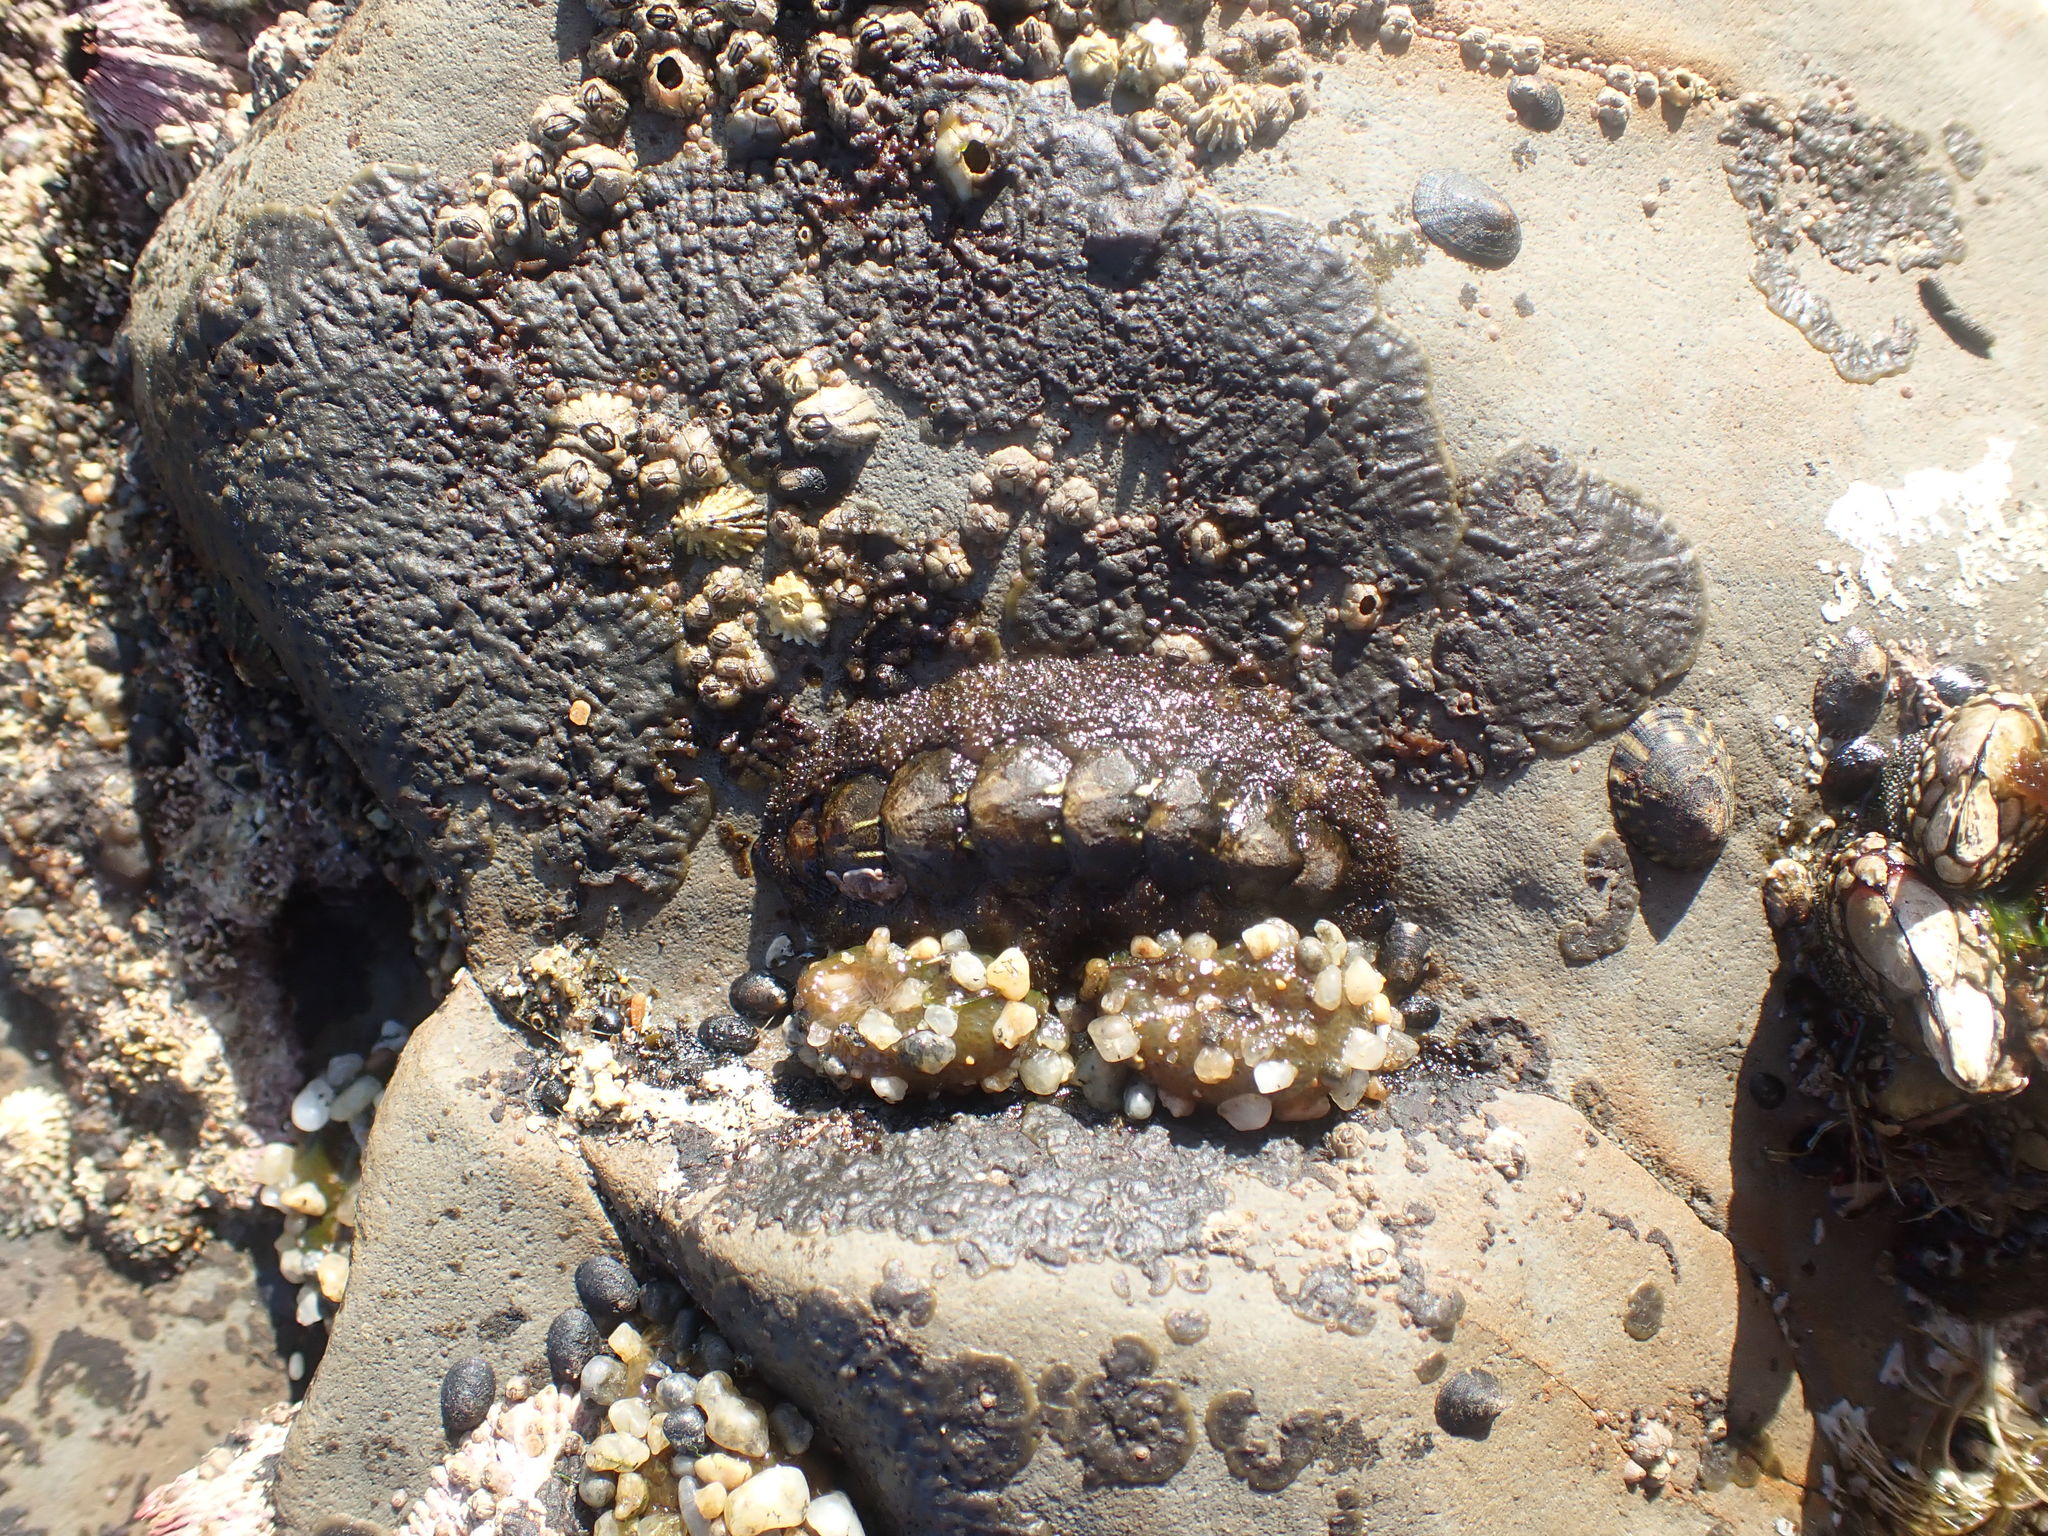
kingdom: Animalia
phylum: Mollusca
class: Polyplacophora
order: Chitonida
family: Tonicellidae
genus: Nuttallina
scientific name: Nuttallina californica
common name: California nuttall chiton
